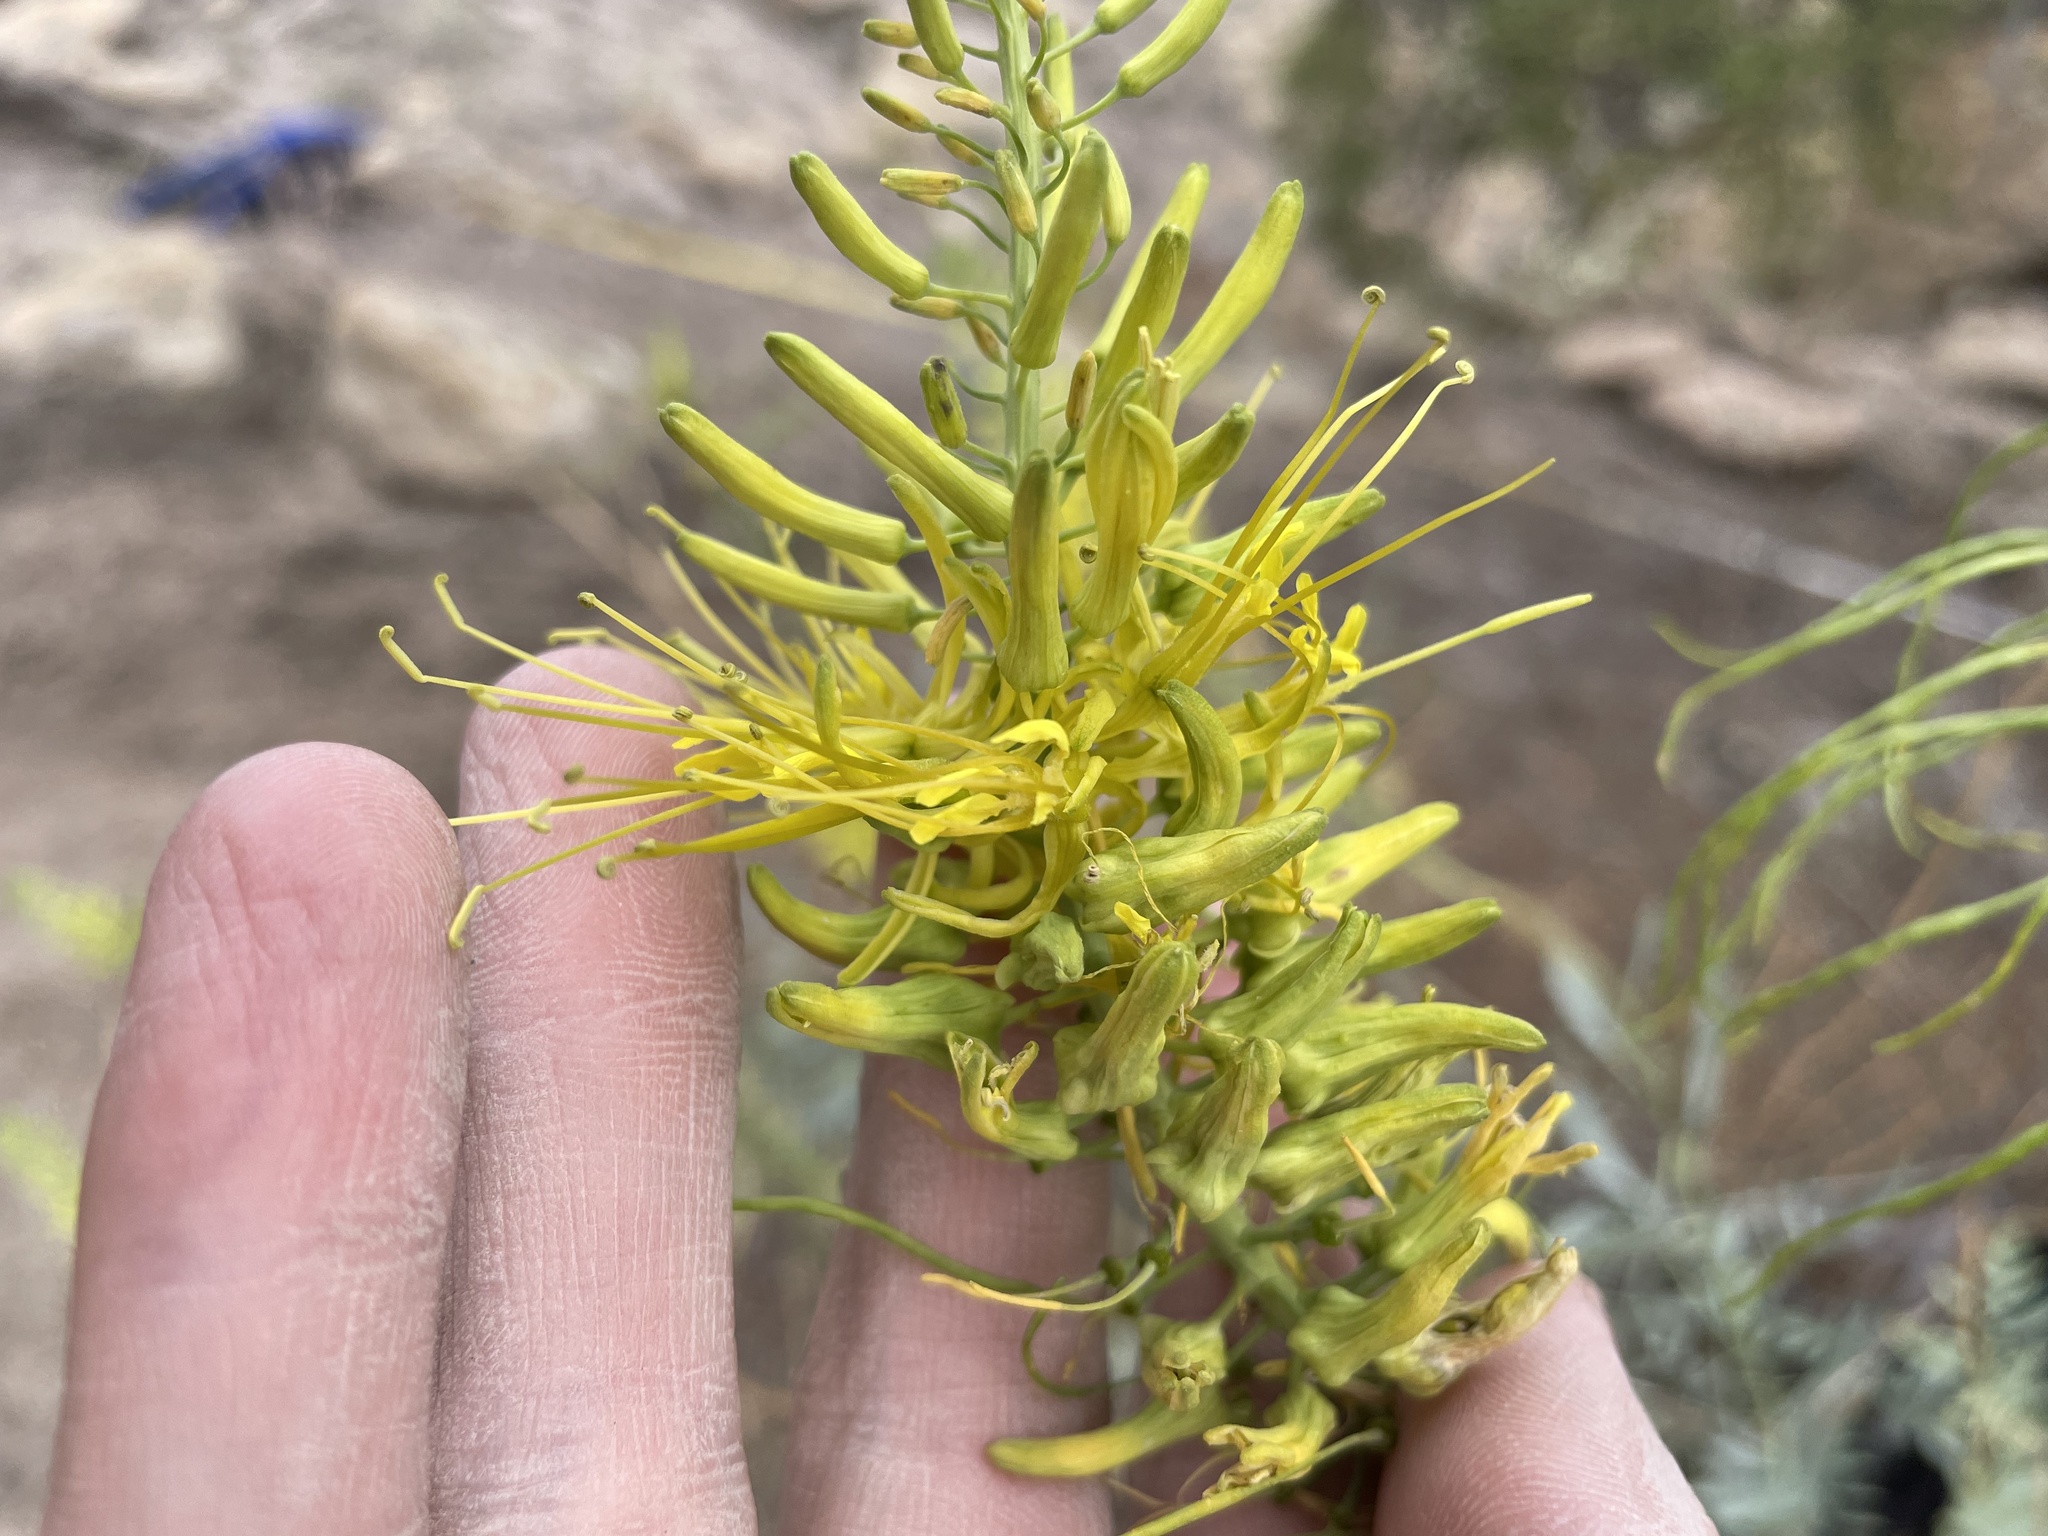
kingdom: Plantae
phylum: Tracheophyta
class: Magnoliopsida
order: Brassicales
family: Brassicaceae
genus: Stanleya
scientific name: Stanleya pinnata
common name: Prince's-plume
